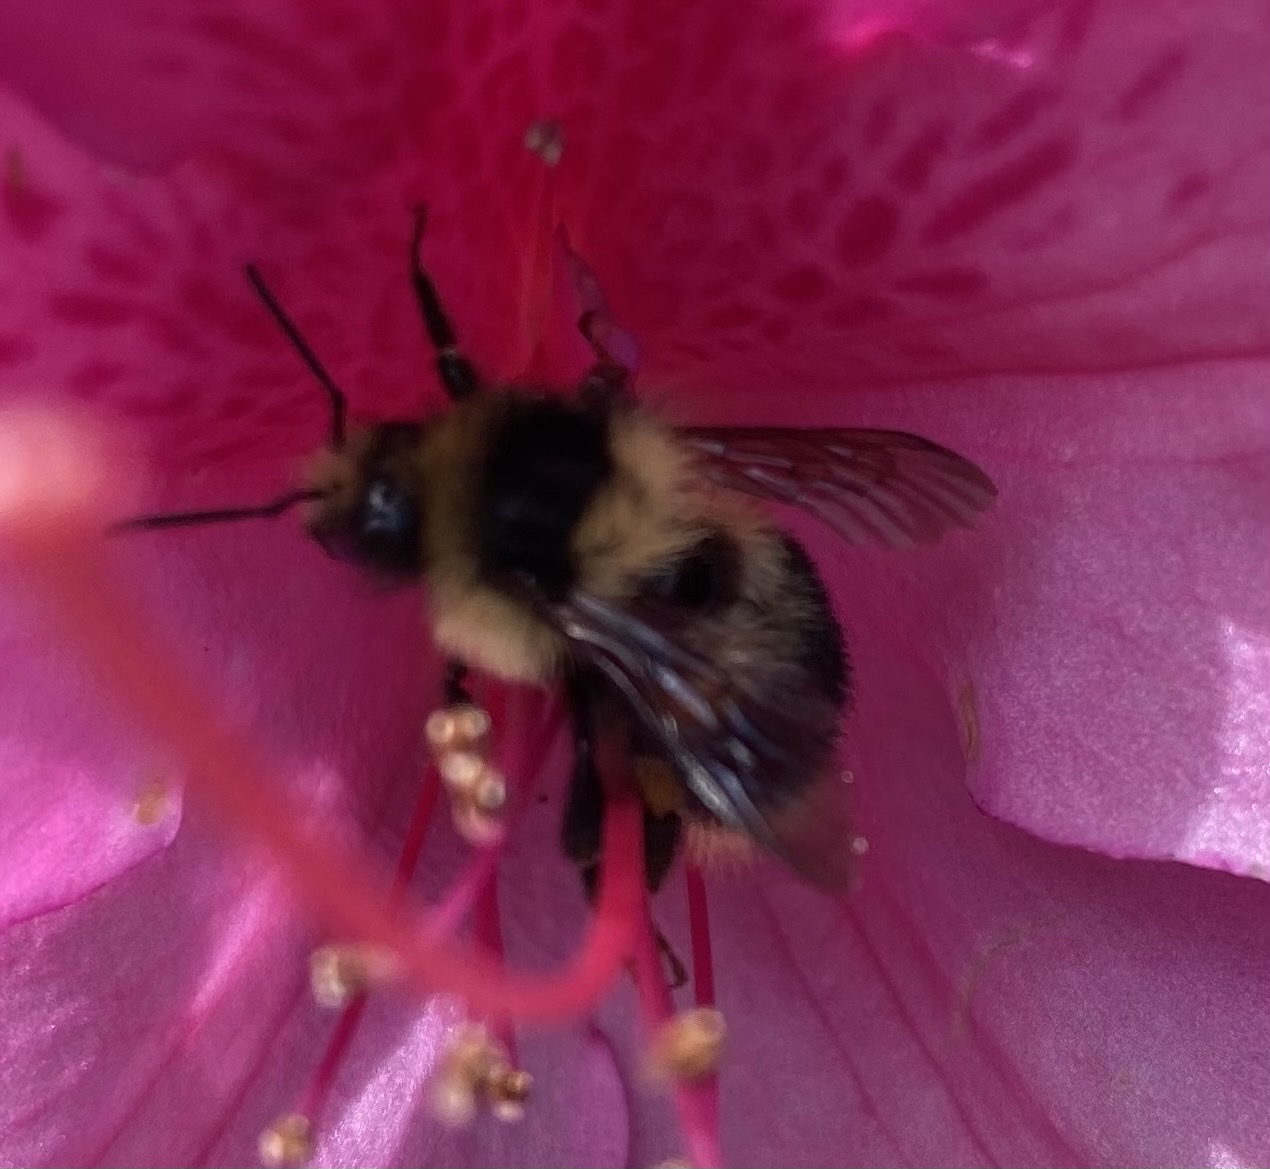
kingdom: Animalia
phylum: Arthropoda
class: Insecta
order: Hymenoptera
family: Apidae
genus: Bombus
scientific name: Bombus melanopygus
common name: Black tail bumble bee
